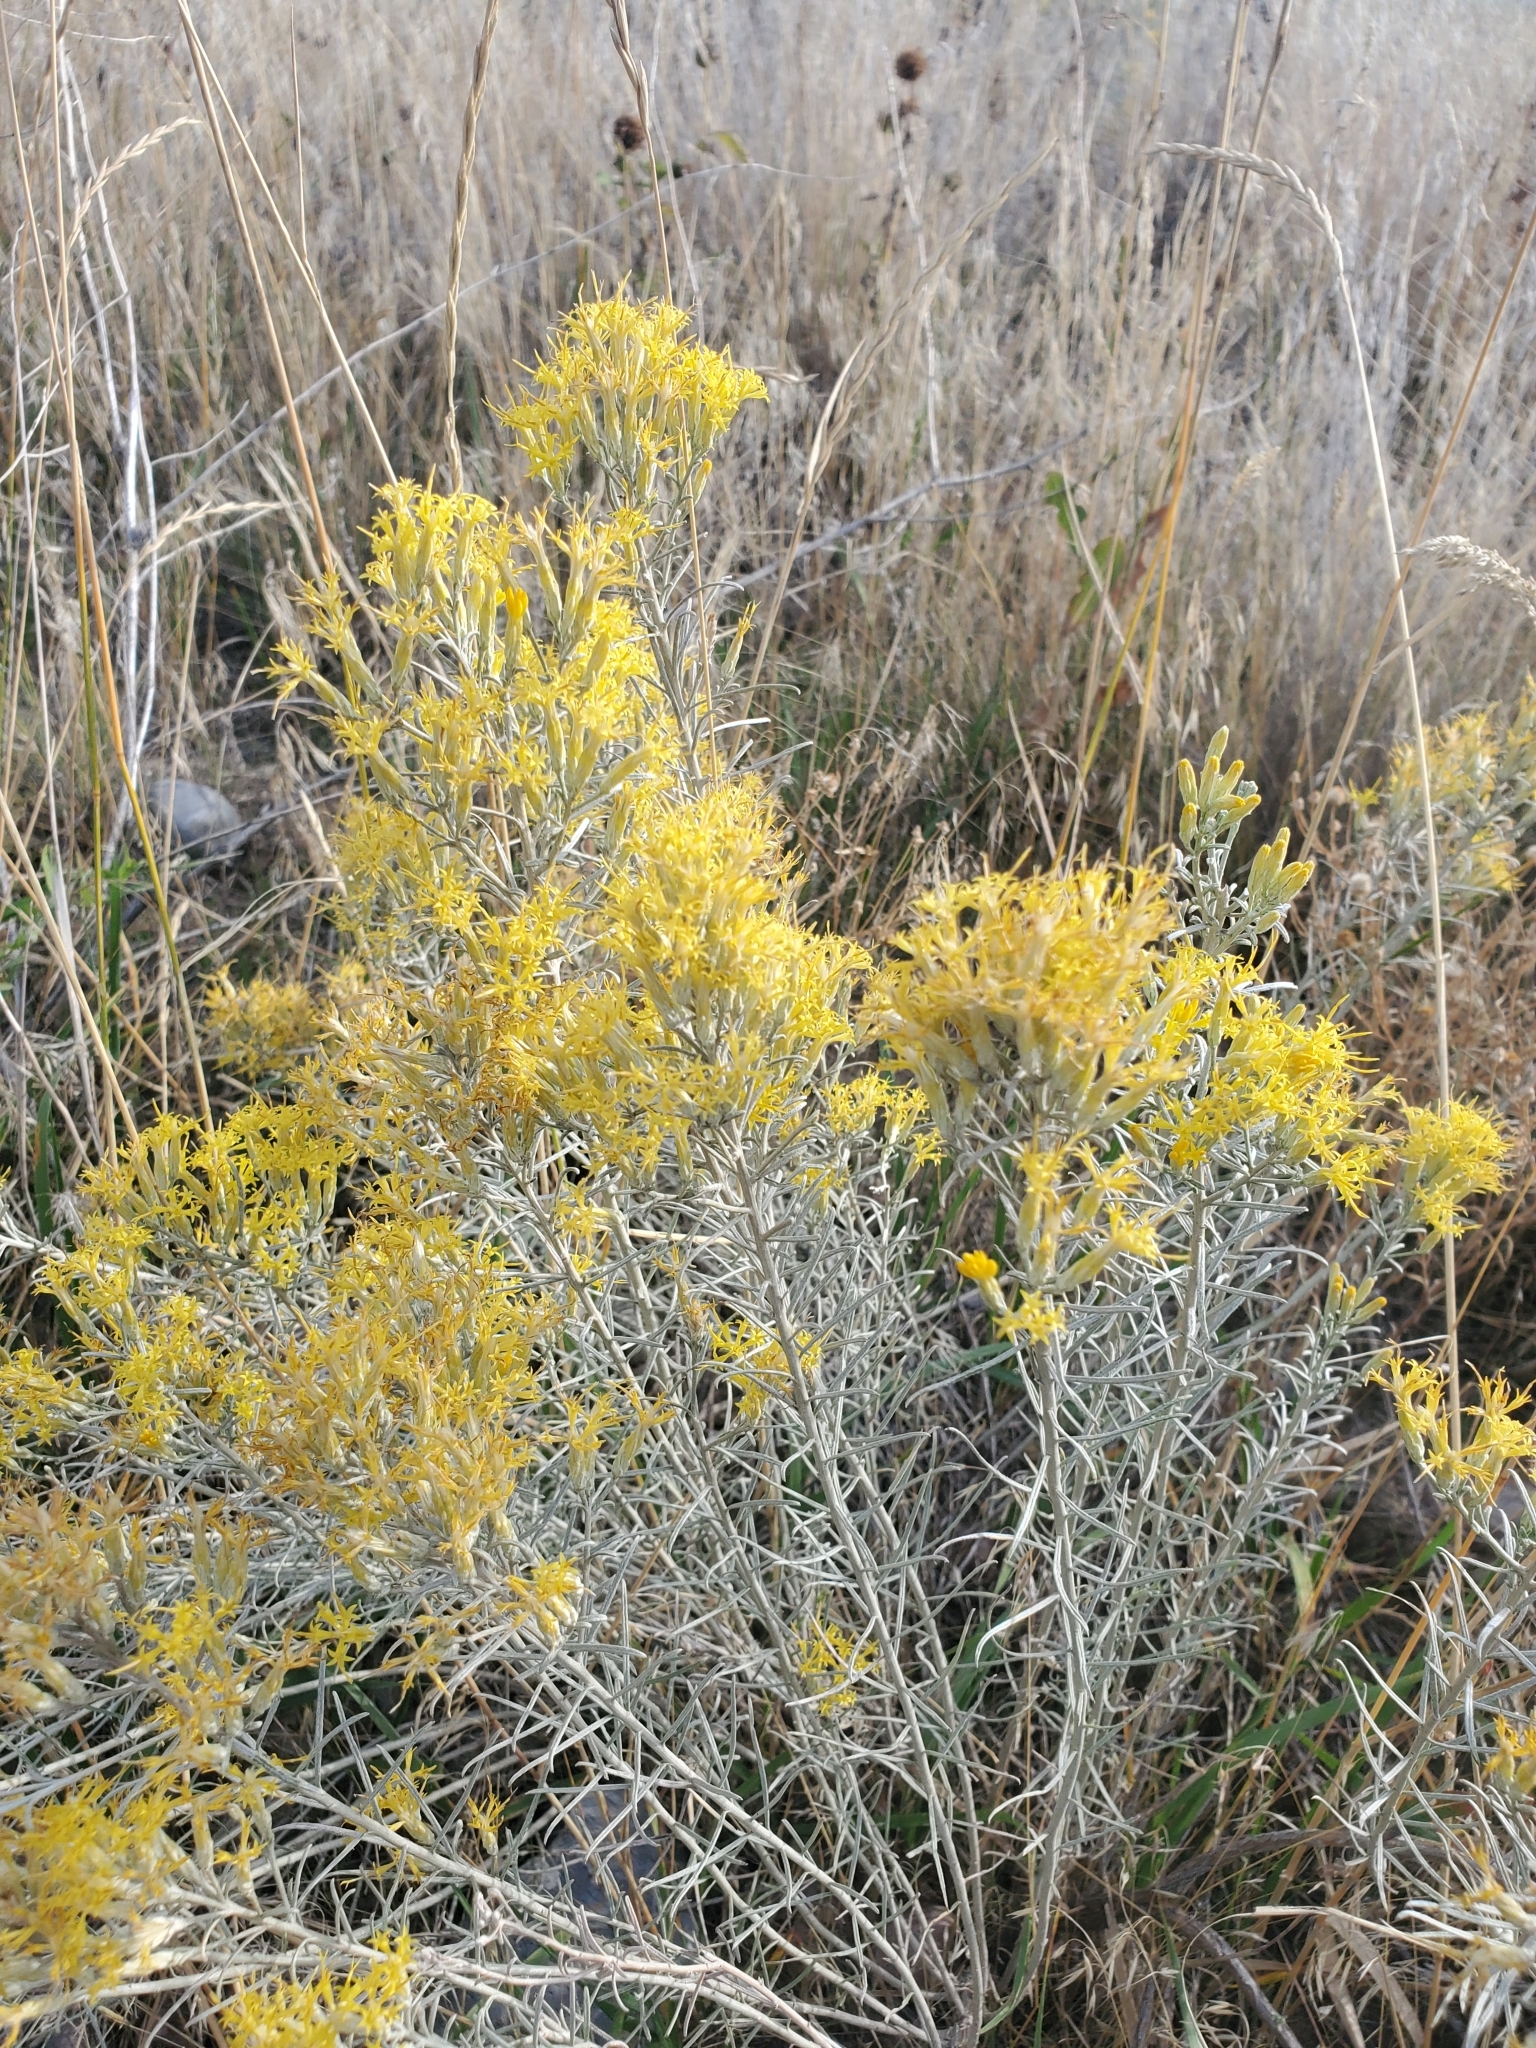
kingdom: Plantae
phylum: Tracheophyta
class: Magnoliopsida
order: Asterales
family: Asteraceae
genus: Ericameria
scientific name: Ericameria nauseosa
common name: Rubber rabbitbrush
